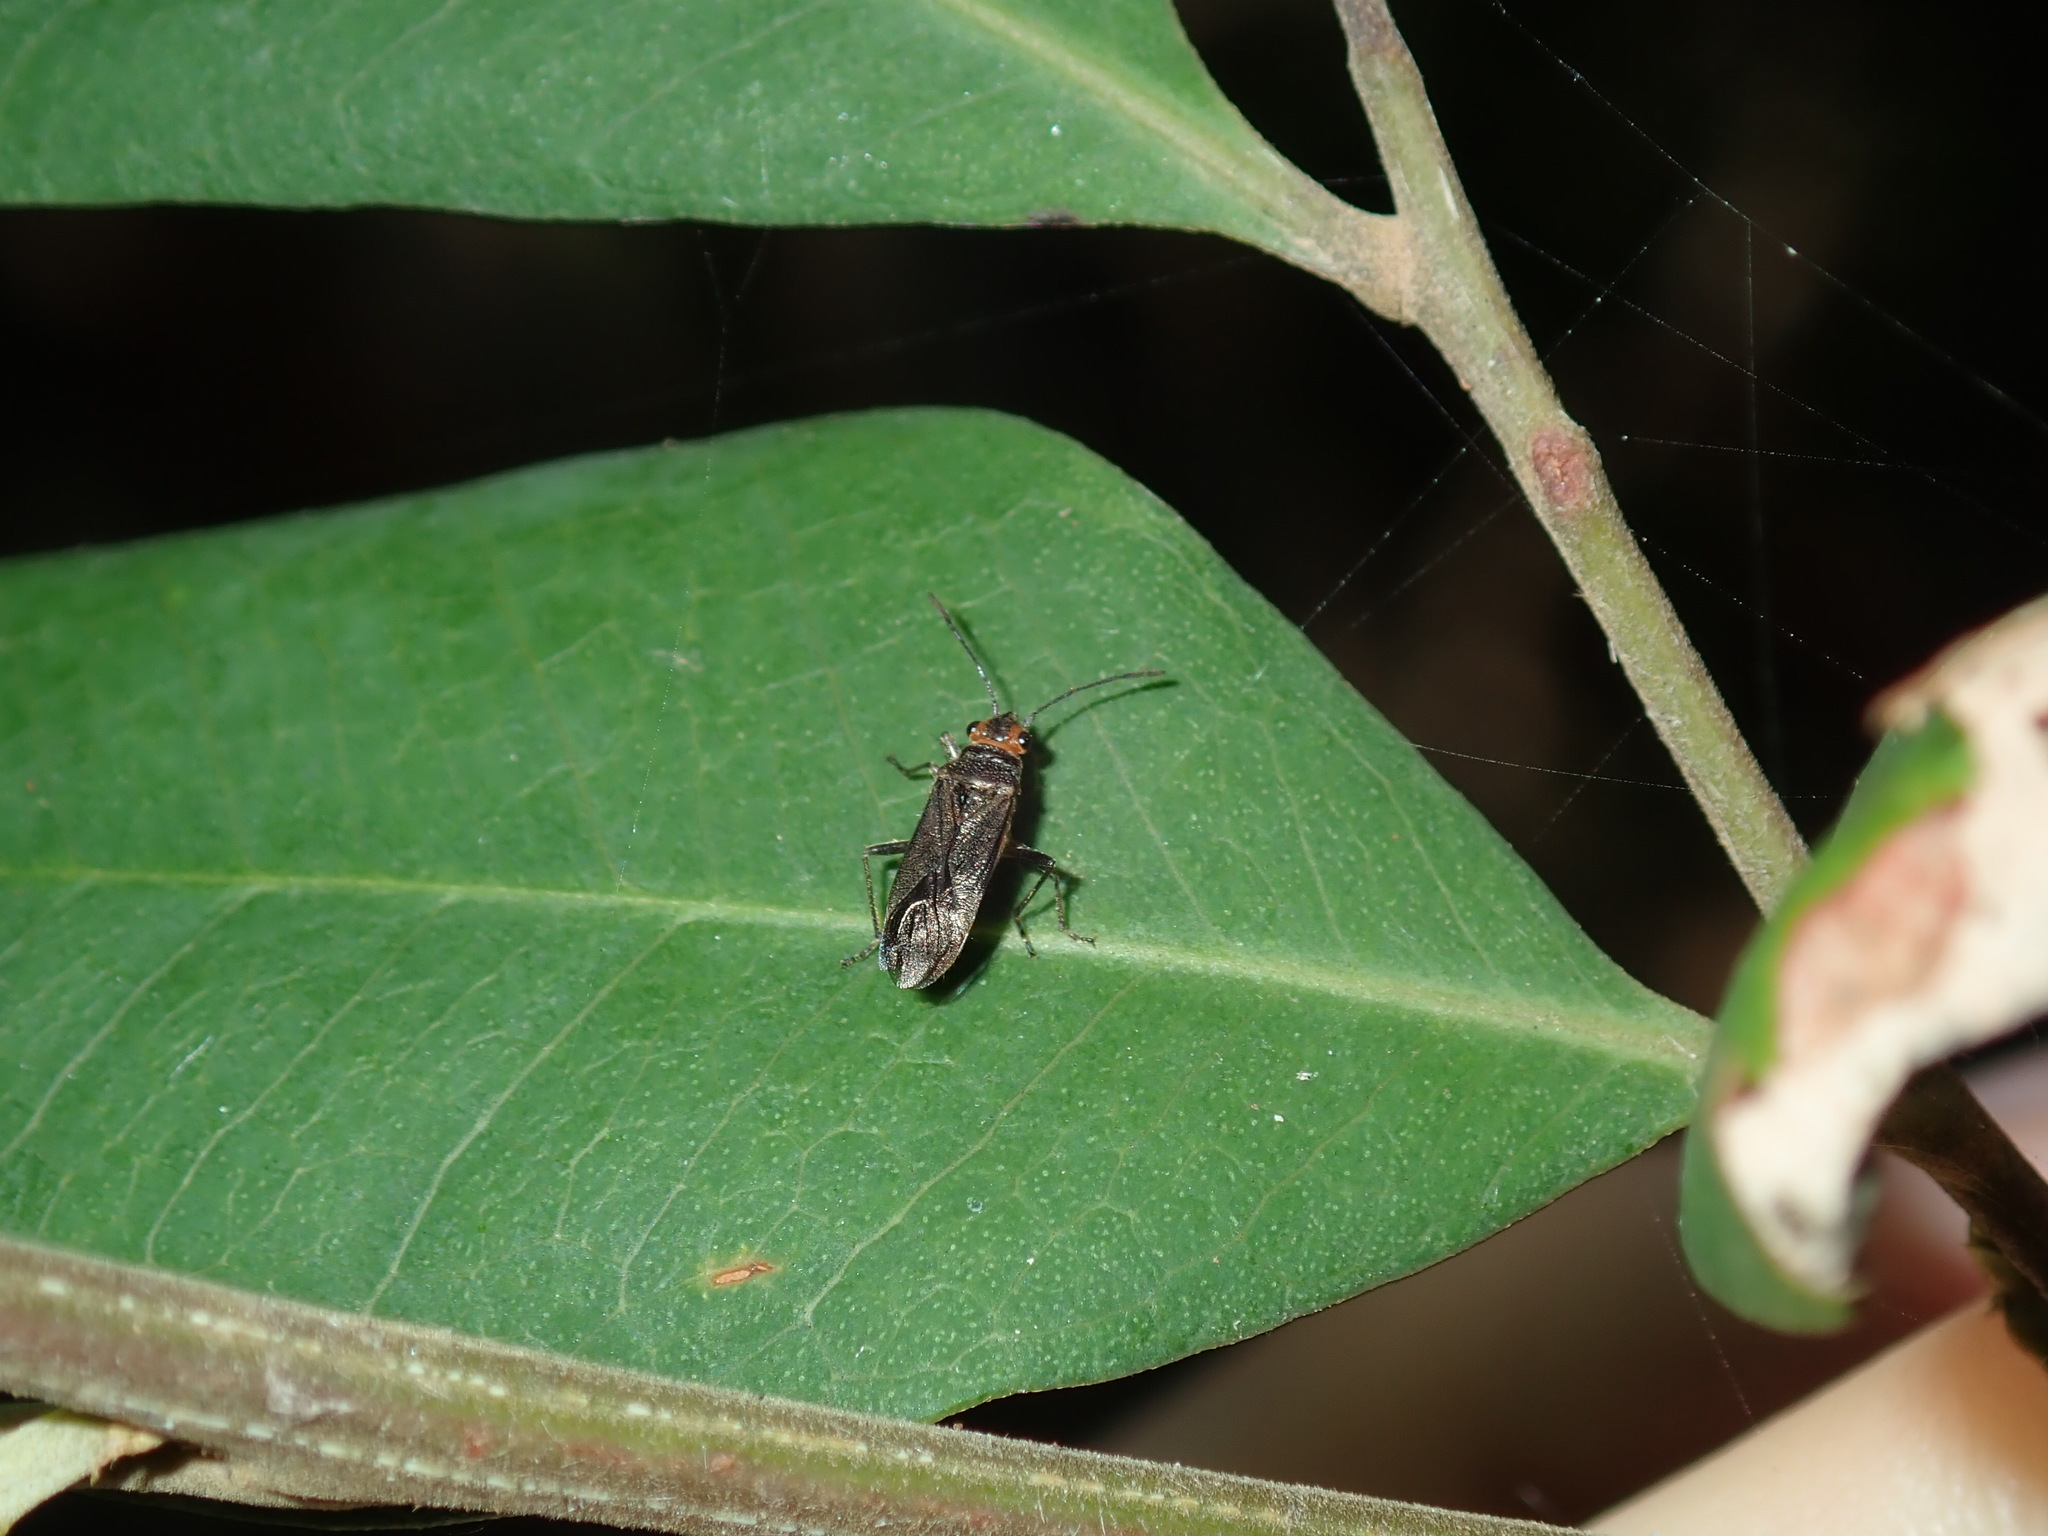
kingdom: Animalia
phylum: Arthropoda
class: Insecta
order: Hemiptera
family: Lygaeidae
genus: Arocatus
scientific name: Arocatus aenescens
